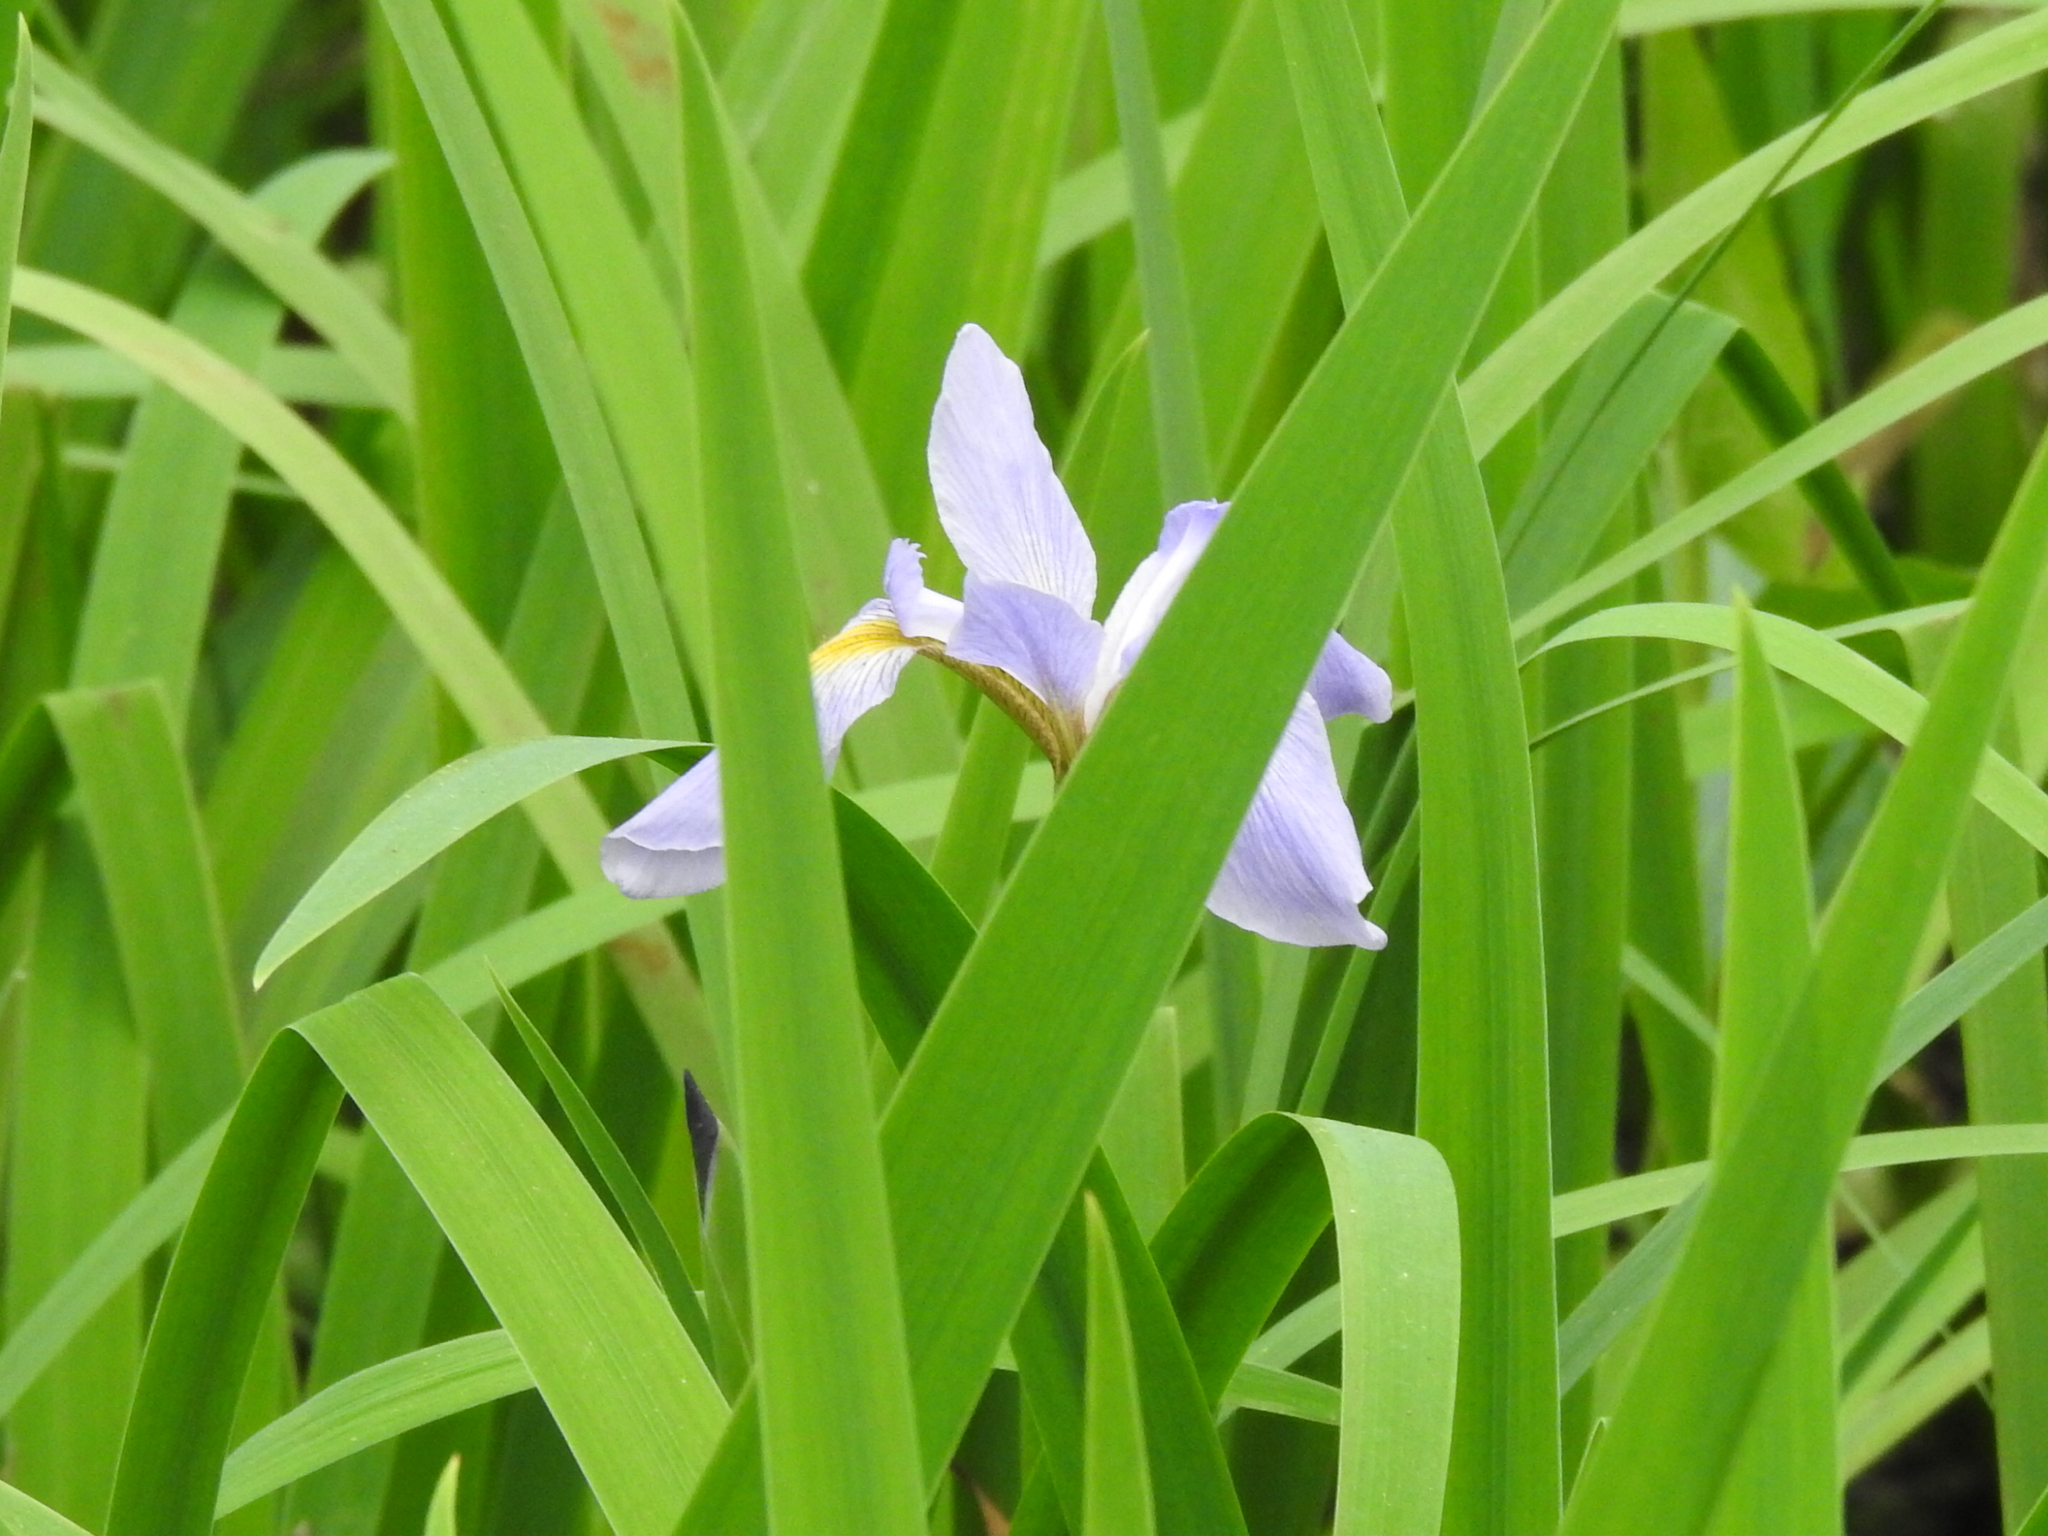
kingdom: Plantae
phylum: Tracheophyta
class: Liliopsida
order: Asparagales
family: Iridaceae
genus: Iris
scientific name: Iris virginica
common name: Southern blue flag
